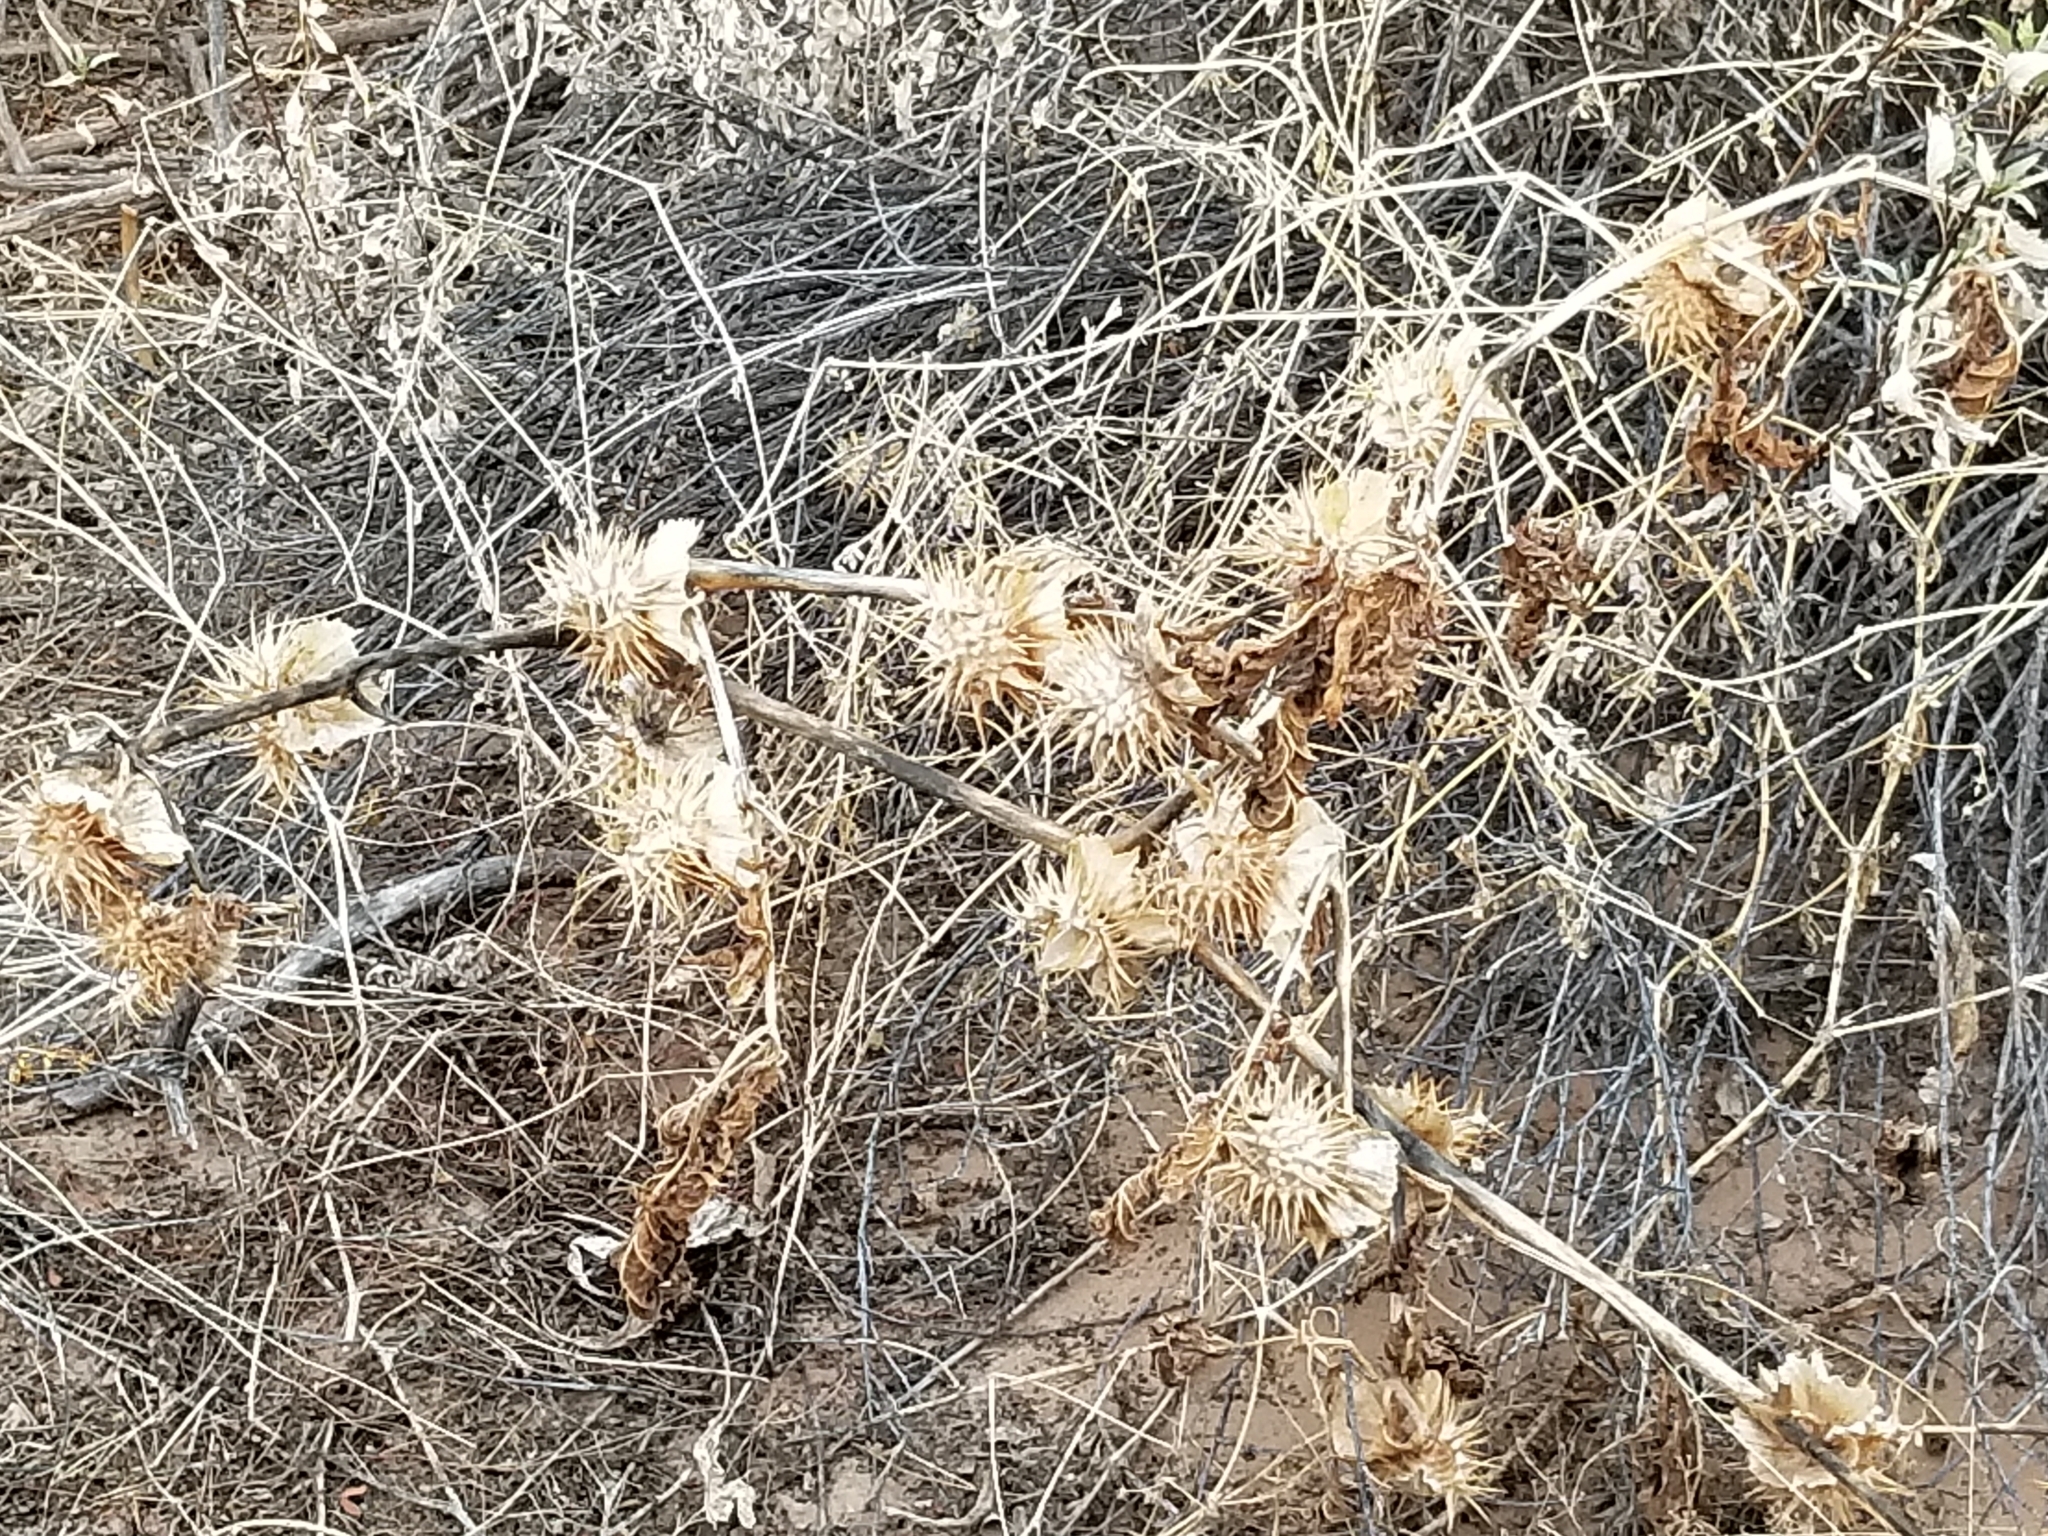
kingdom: Plantae
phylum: Tracheophyta
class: Magnoliopsida
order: Solanales
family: Solanaceae
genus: Datura
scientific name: Datura discolor
